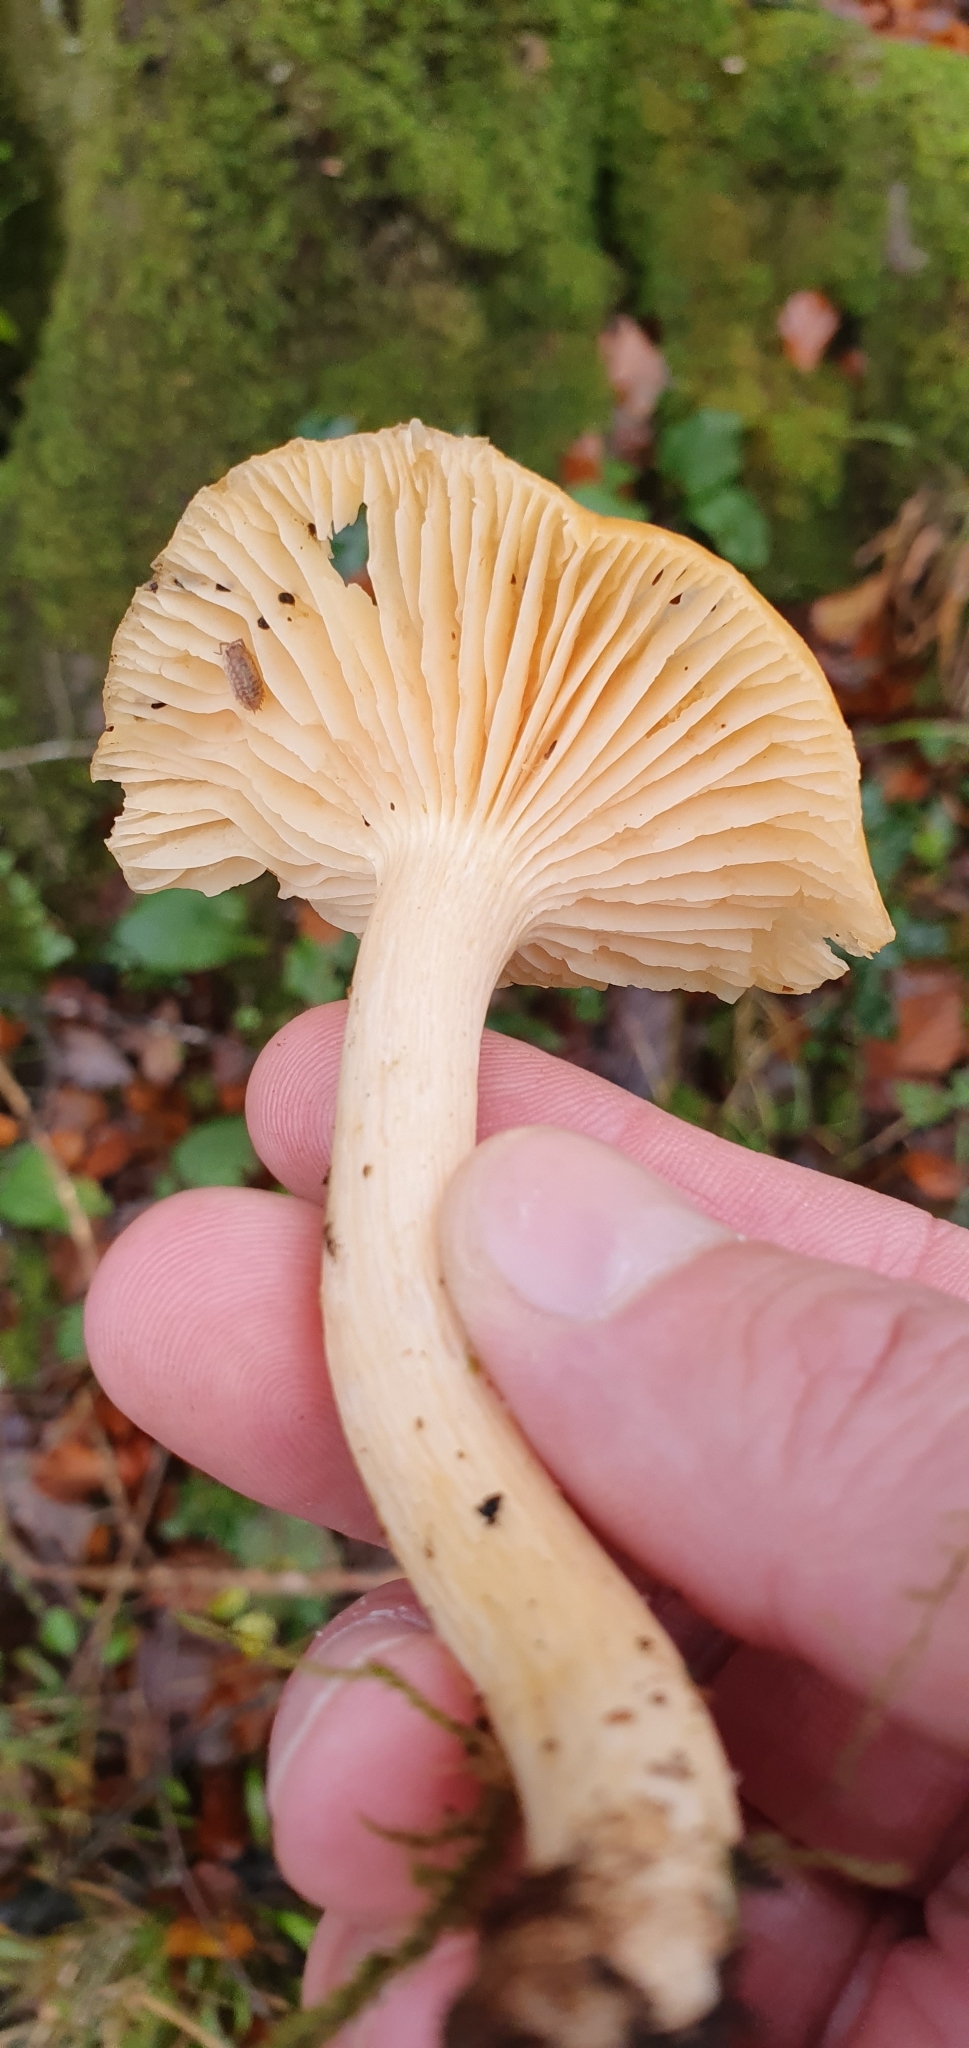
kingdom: Fungi
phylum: Basidiomycota
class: Agaricomycetes
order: Agaricales
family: Hygrophoraceae
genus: Cuphophyllus
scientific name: Cuphophyllus pratensis
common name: Meadow waxcap
